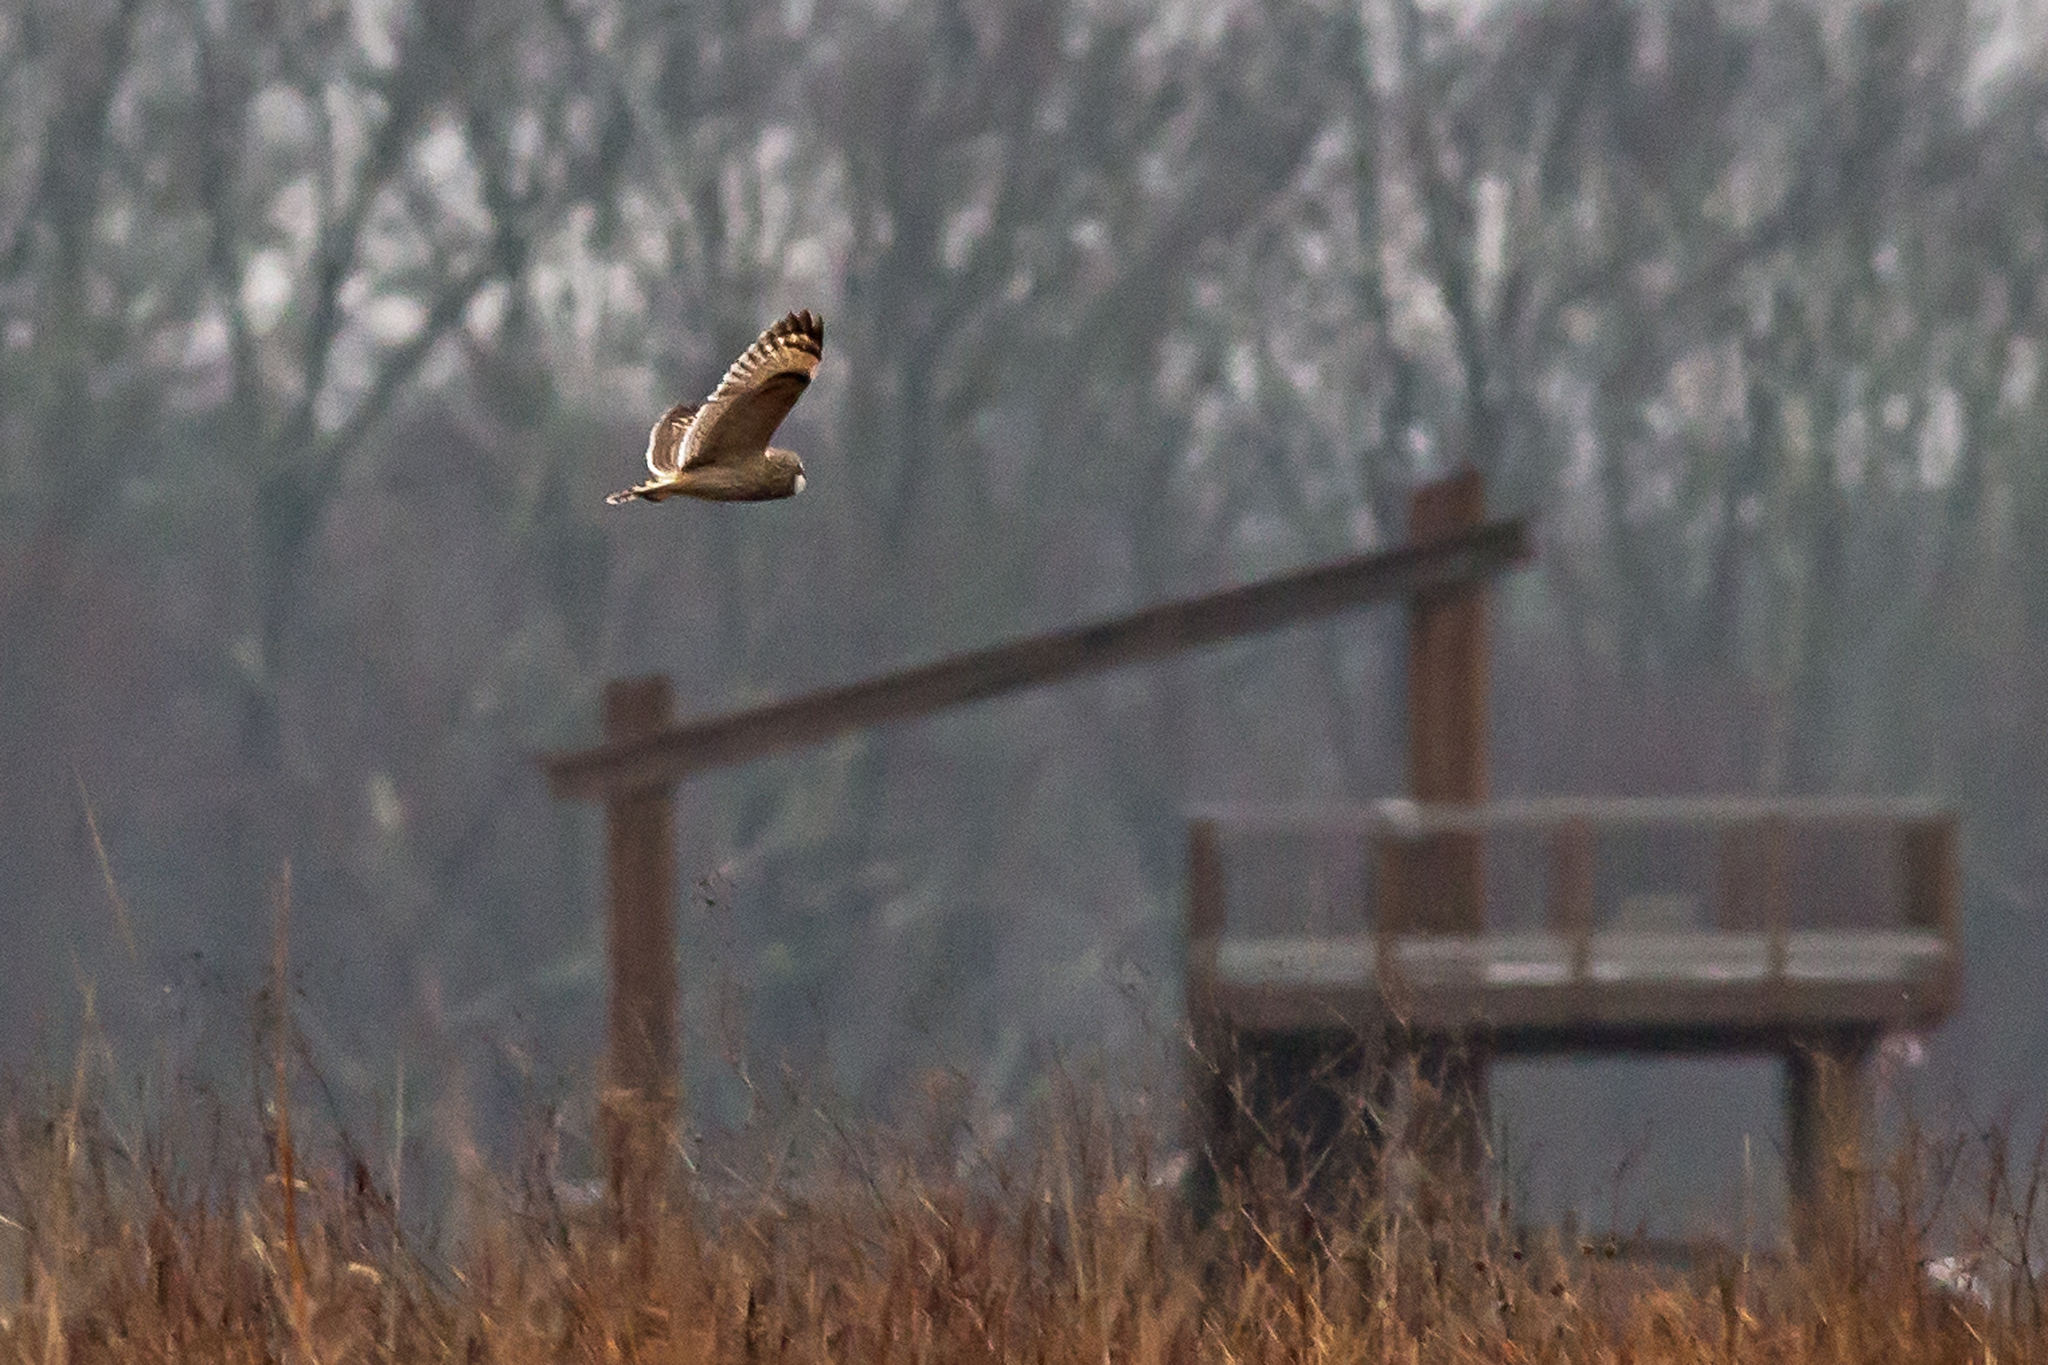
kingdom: Animalia
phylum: Chordata
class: Aves
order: Strigiformes
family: Strigidae
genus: Asio
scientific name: Asio flammeus
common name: Short-eared owl
